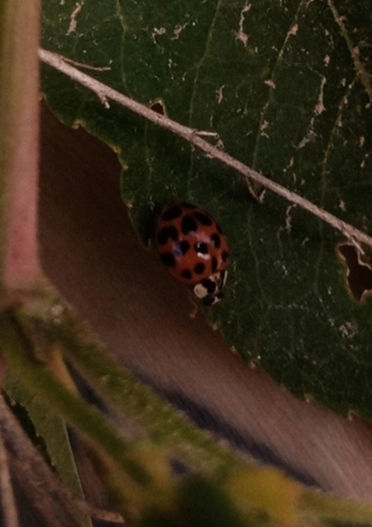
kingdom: Animalia
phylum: Arthropoda
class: Insecta
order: Coleoptera
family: Coccinellidae
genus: Harmonia
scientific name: Harmonia axyridis
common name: Harlequin ladybird
